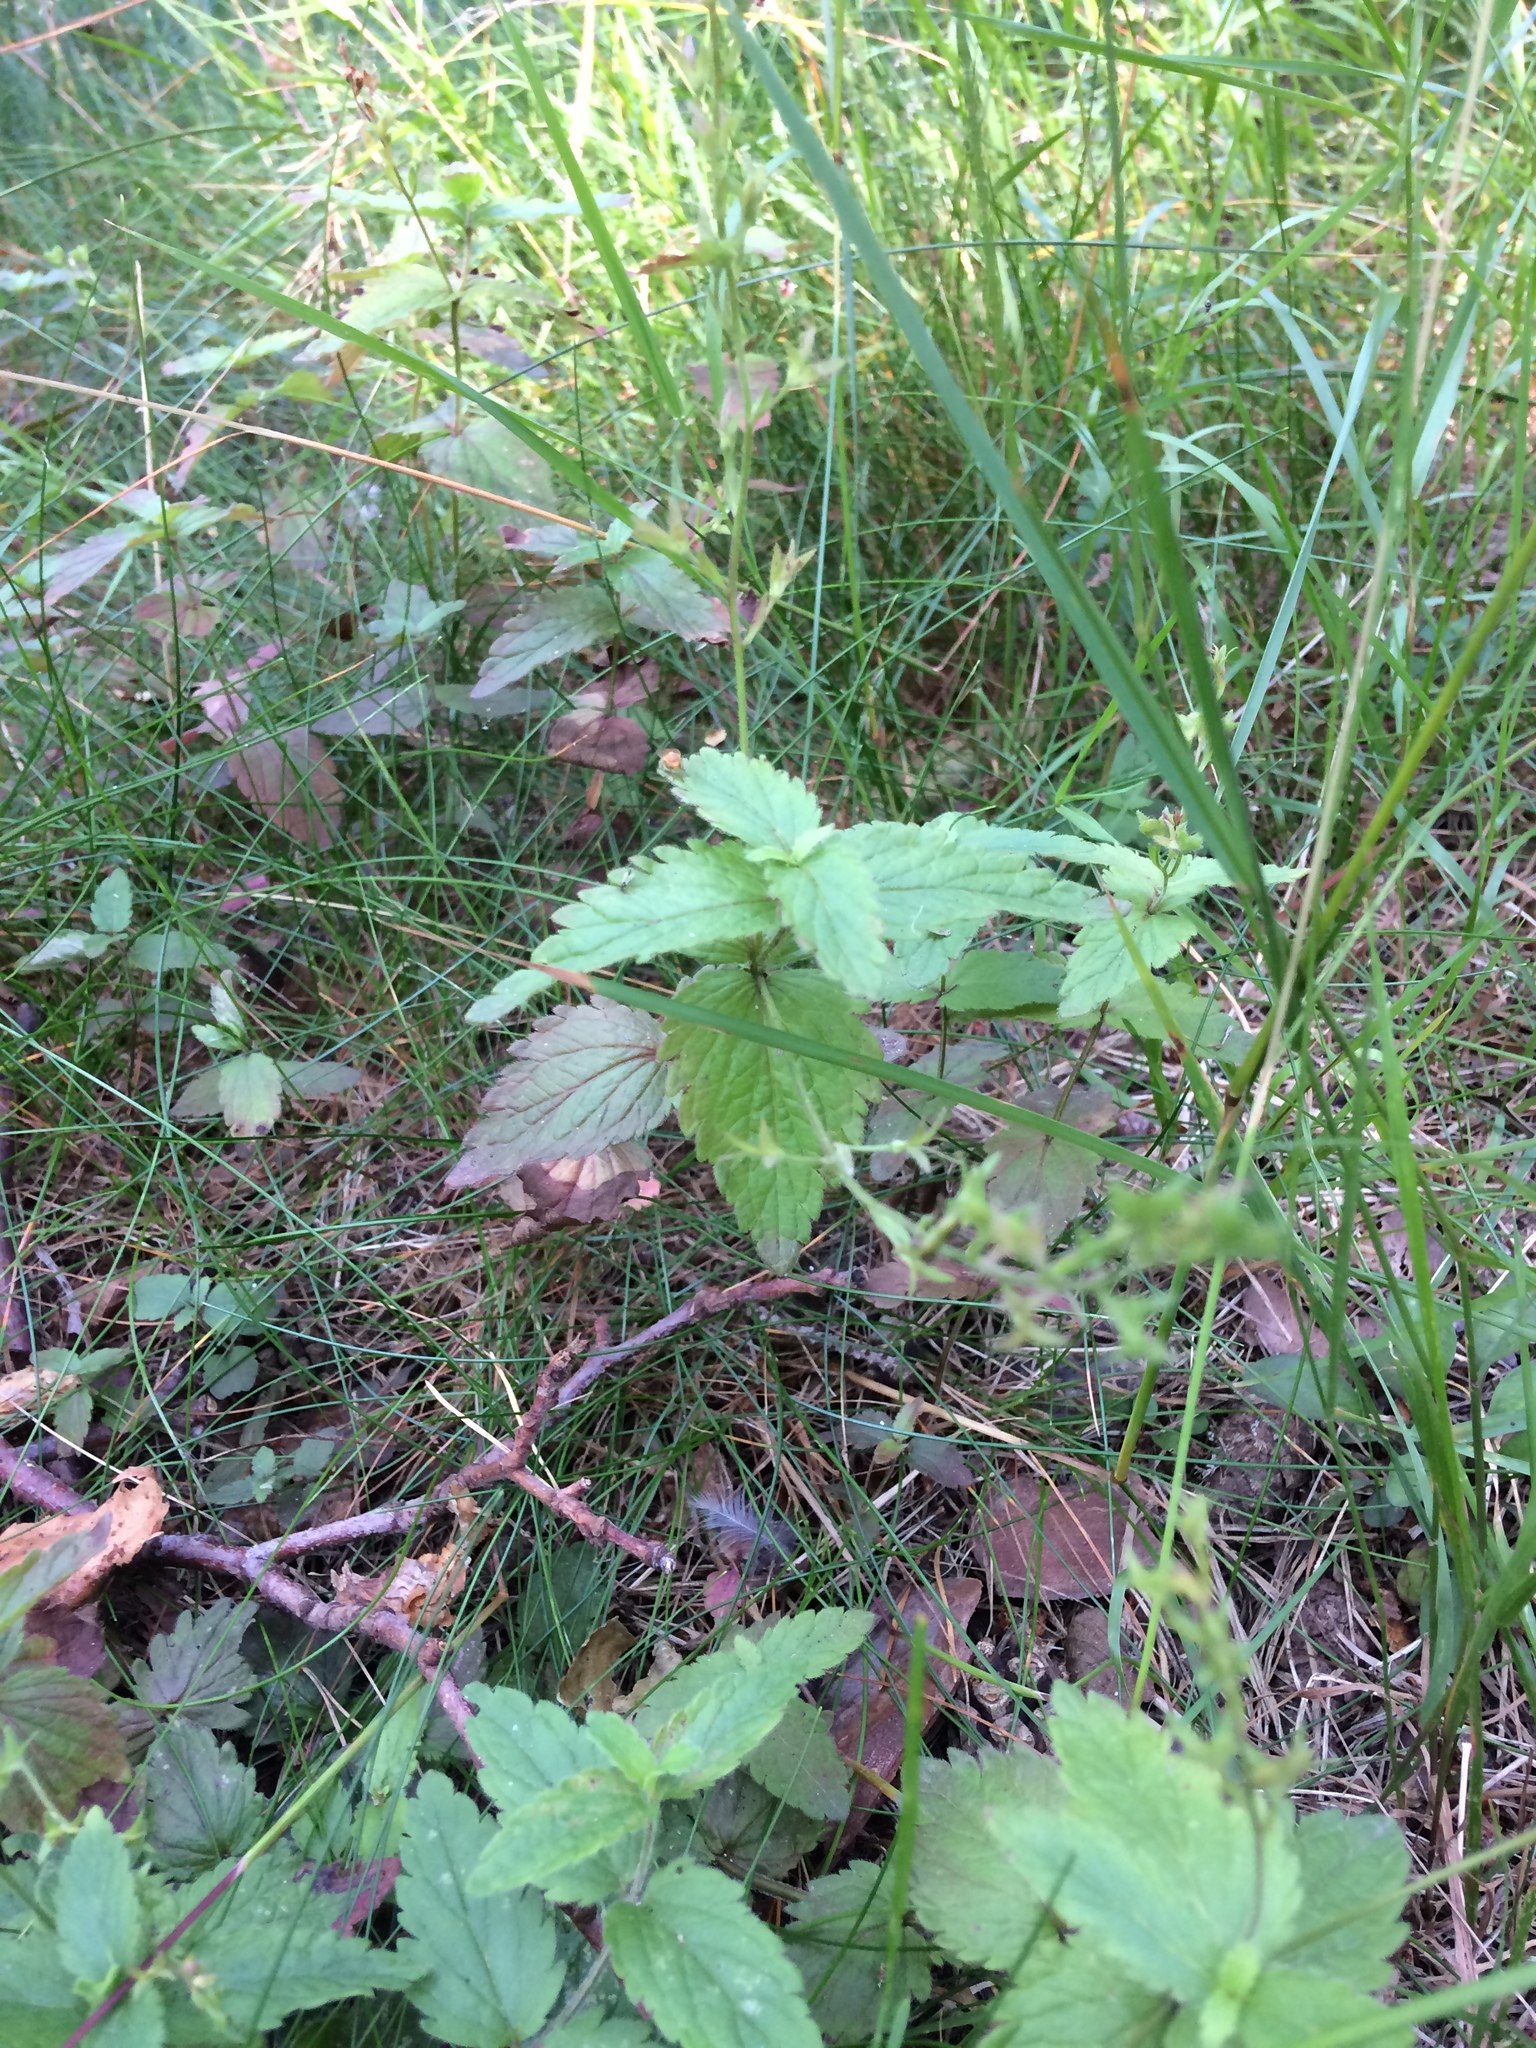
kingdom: Plantae
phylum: Tracheophyta
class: Magnoliopsida
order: Lamiales
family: Plantaginaceae
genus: Veronica
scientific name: Veronica chamaedrys
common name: Germander speedwell
